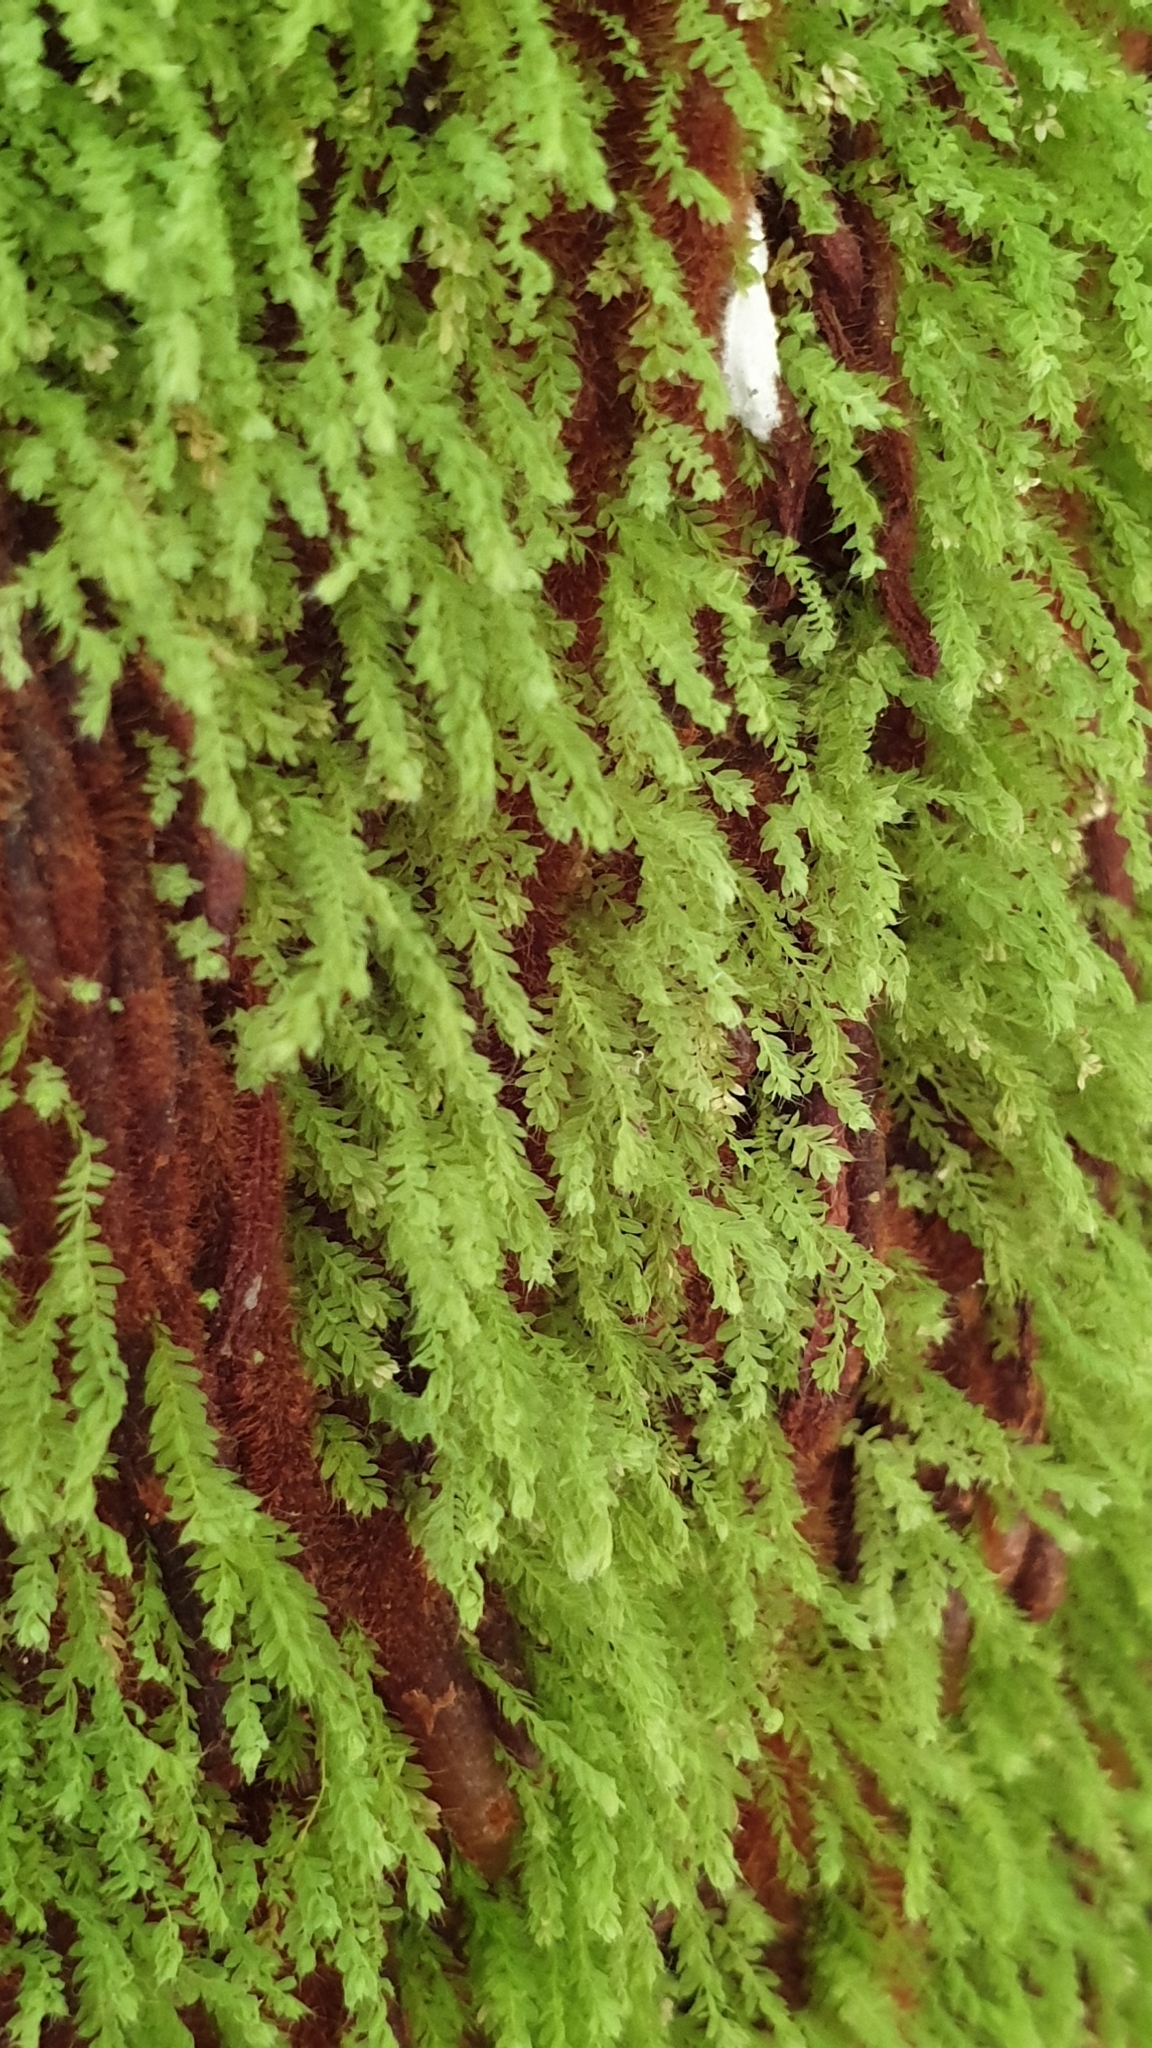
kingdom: Plantae
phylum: Bryophyta
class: Bryopsida
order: Orthodontiales
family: Orthodontiaceae
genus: Hymenodon
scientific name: Hymenodon pilifer
